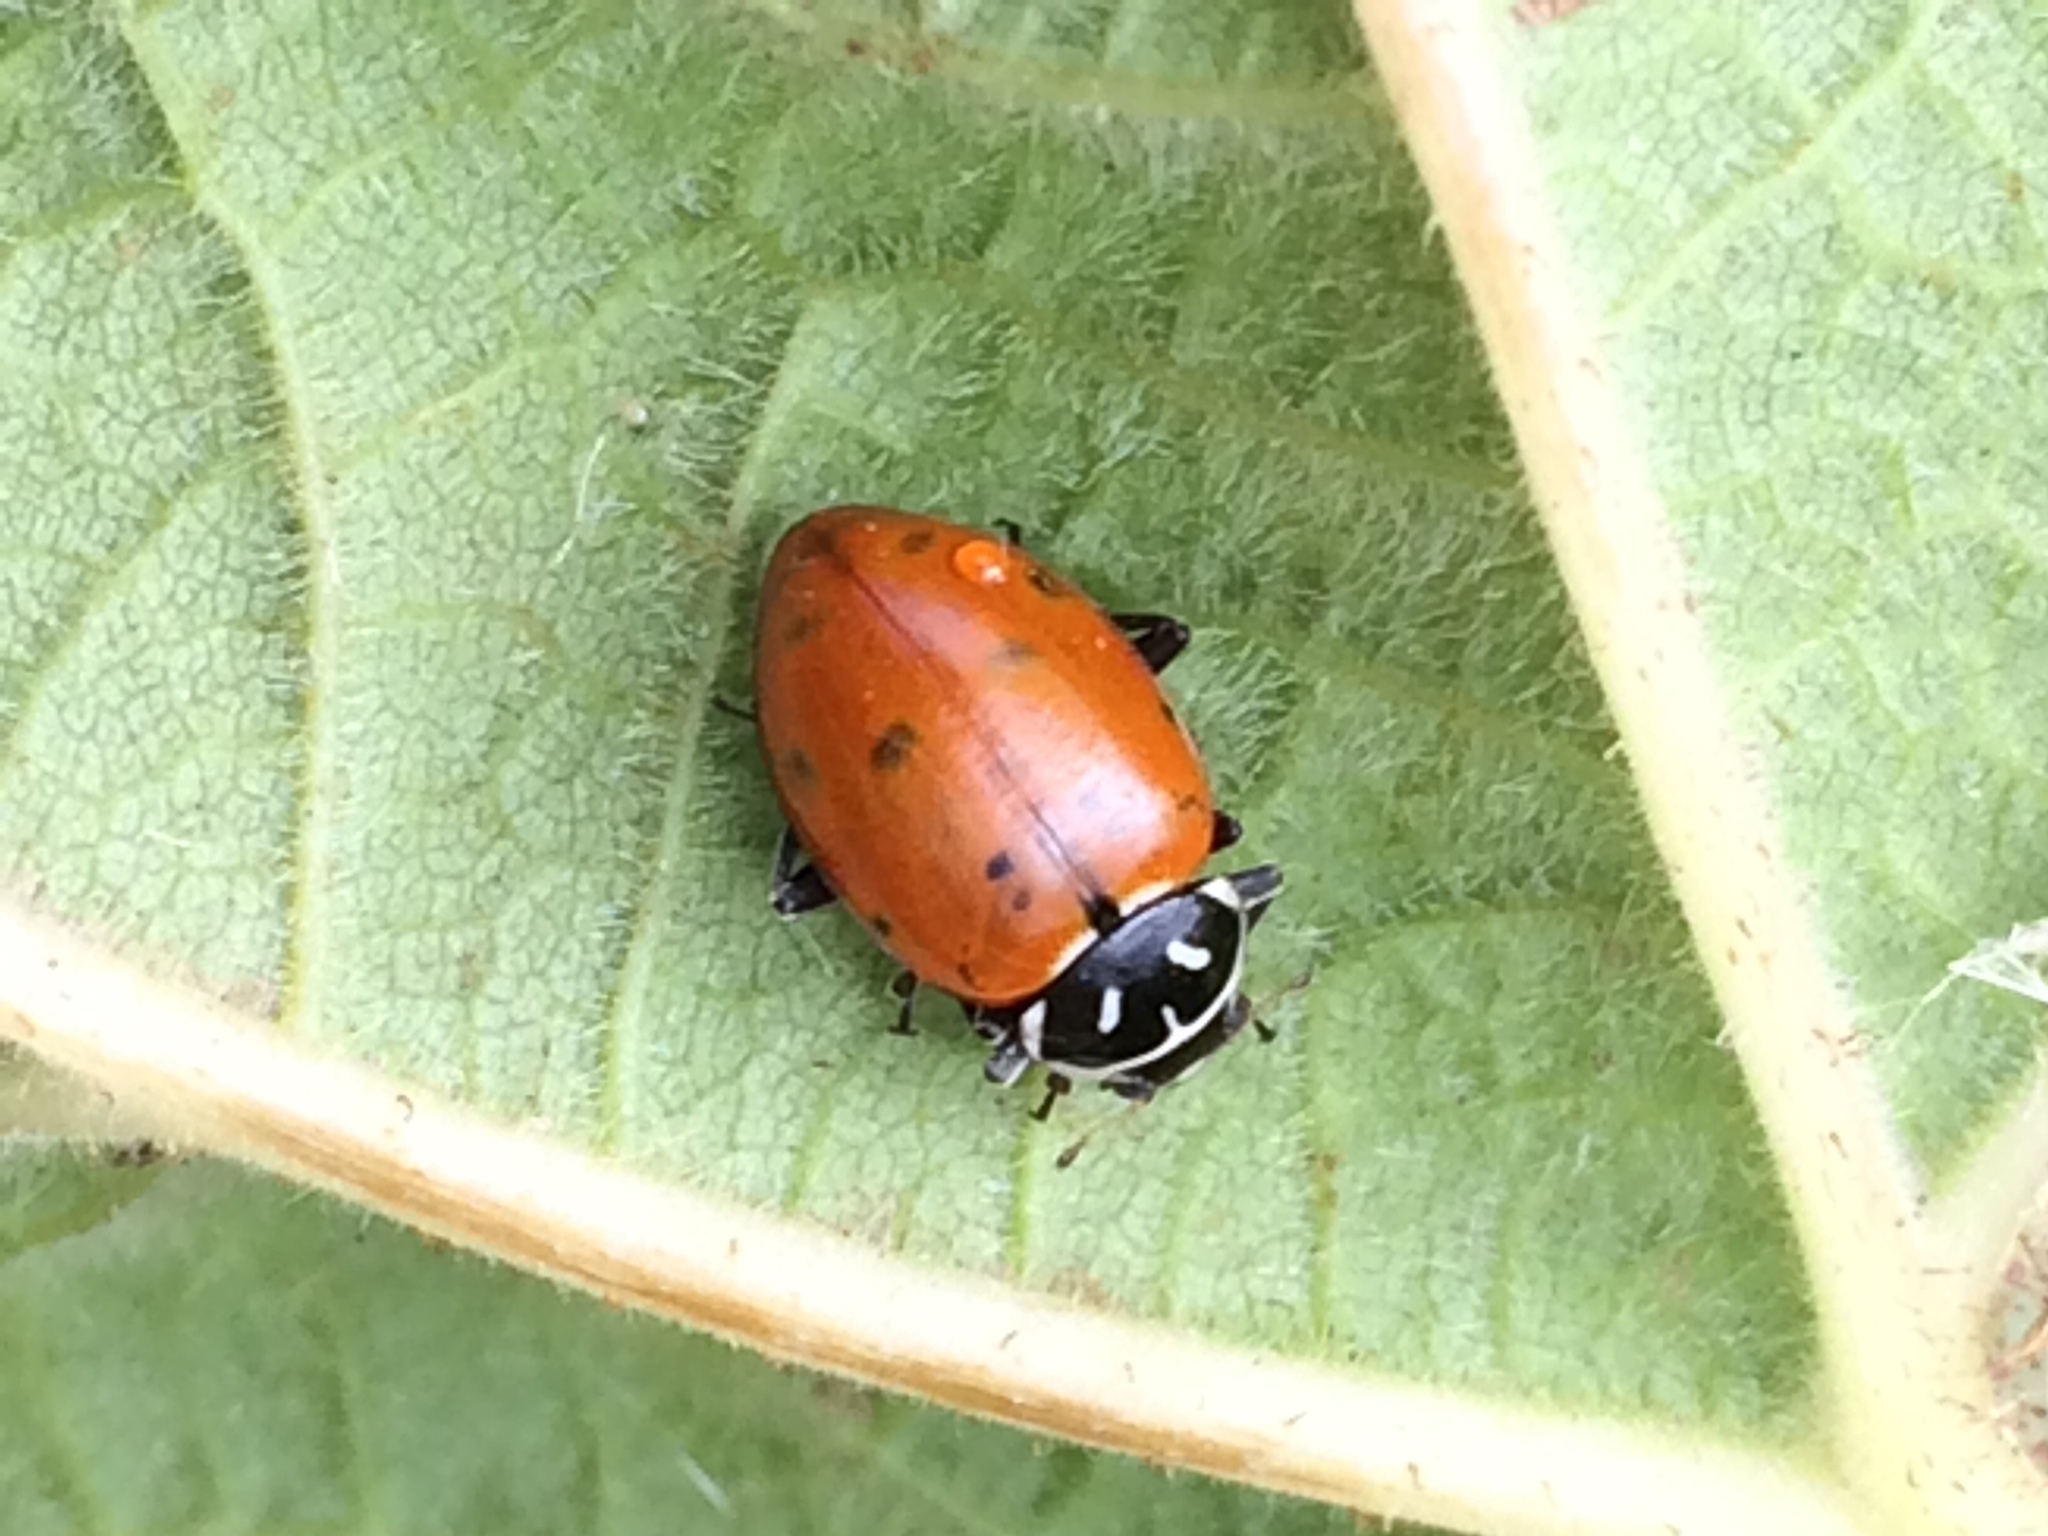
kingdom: Animalia
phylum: Arthropoda
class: Insecta
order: Coleoptera
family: Coccinellidae
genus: Hippodamia
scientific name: Hippodamia convergens
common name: Convergent lady beetle
